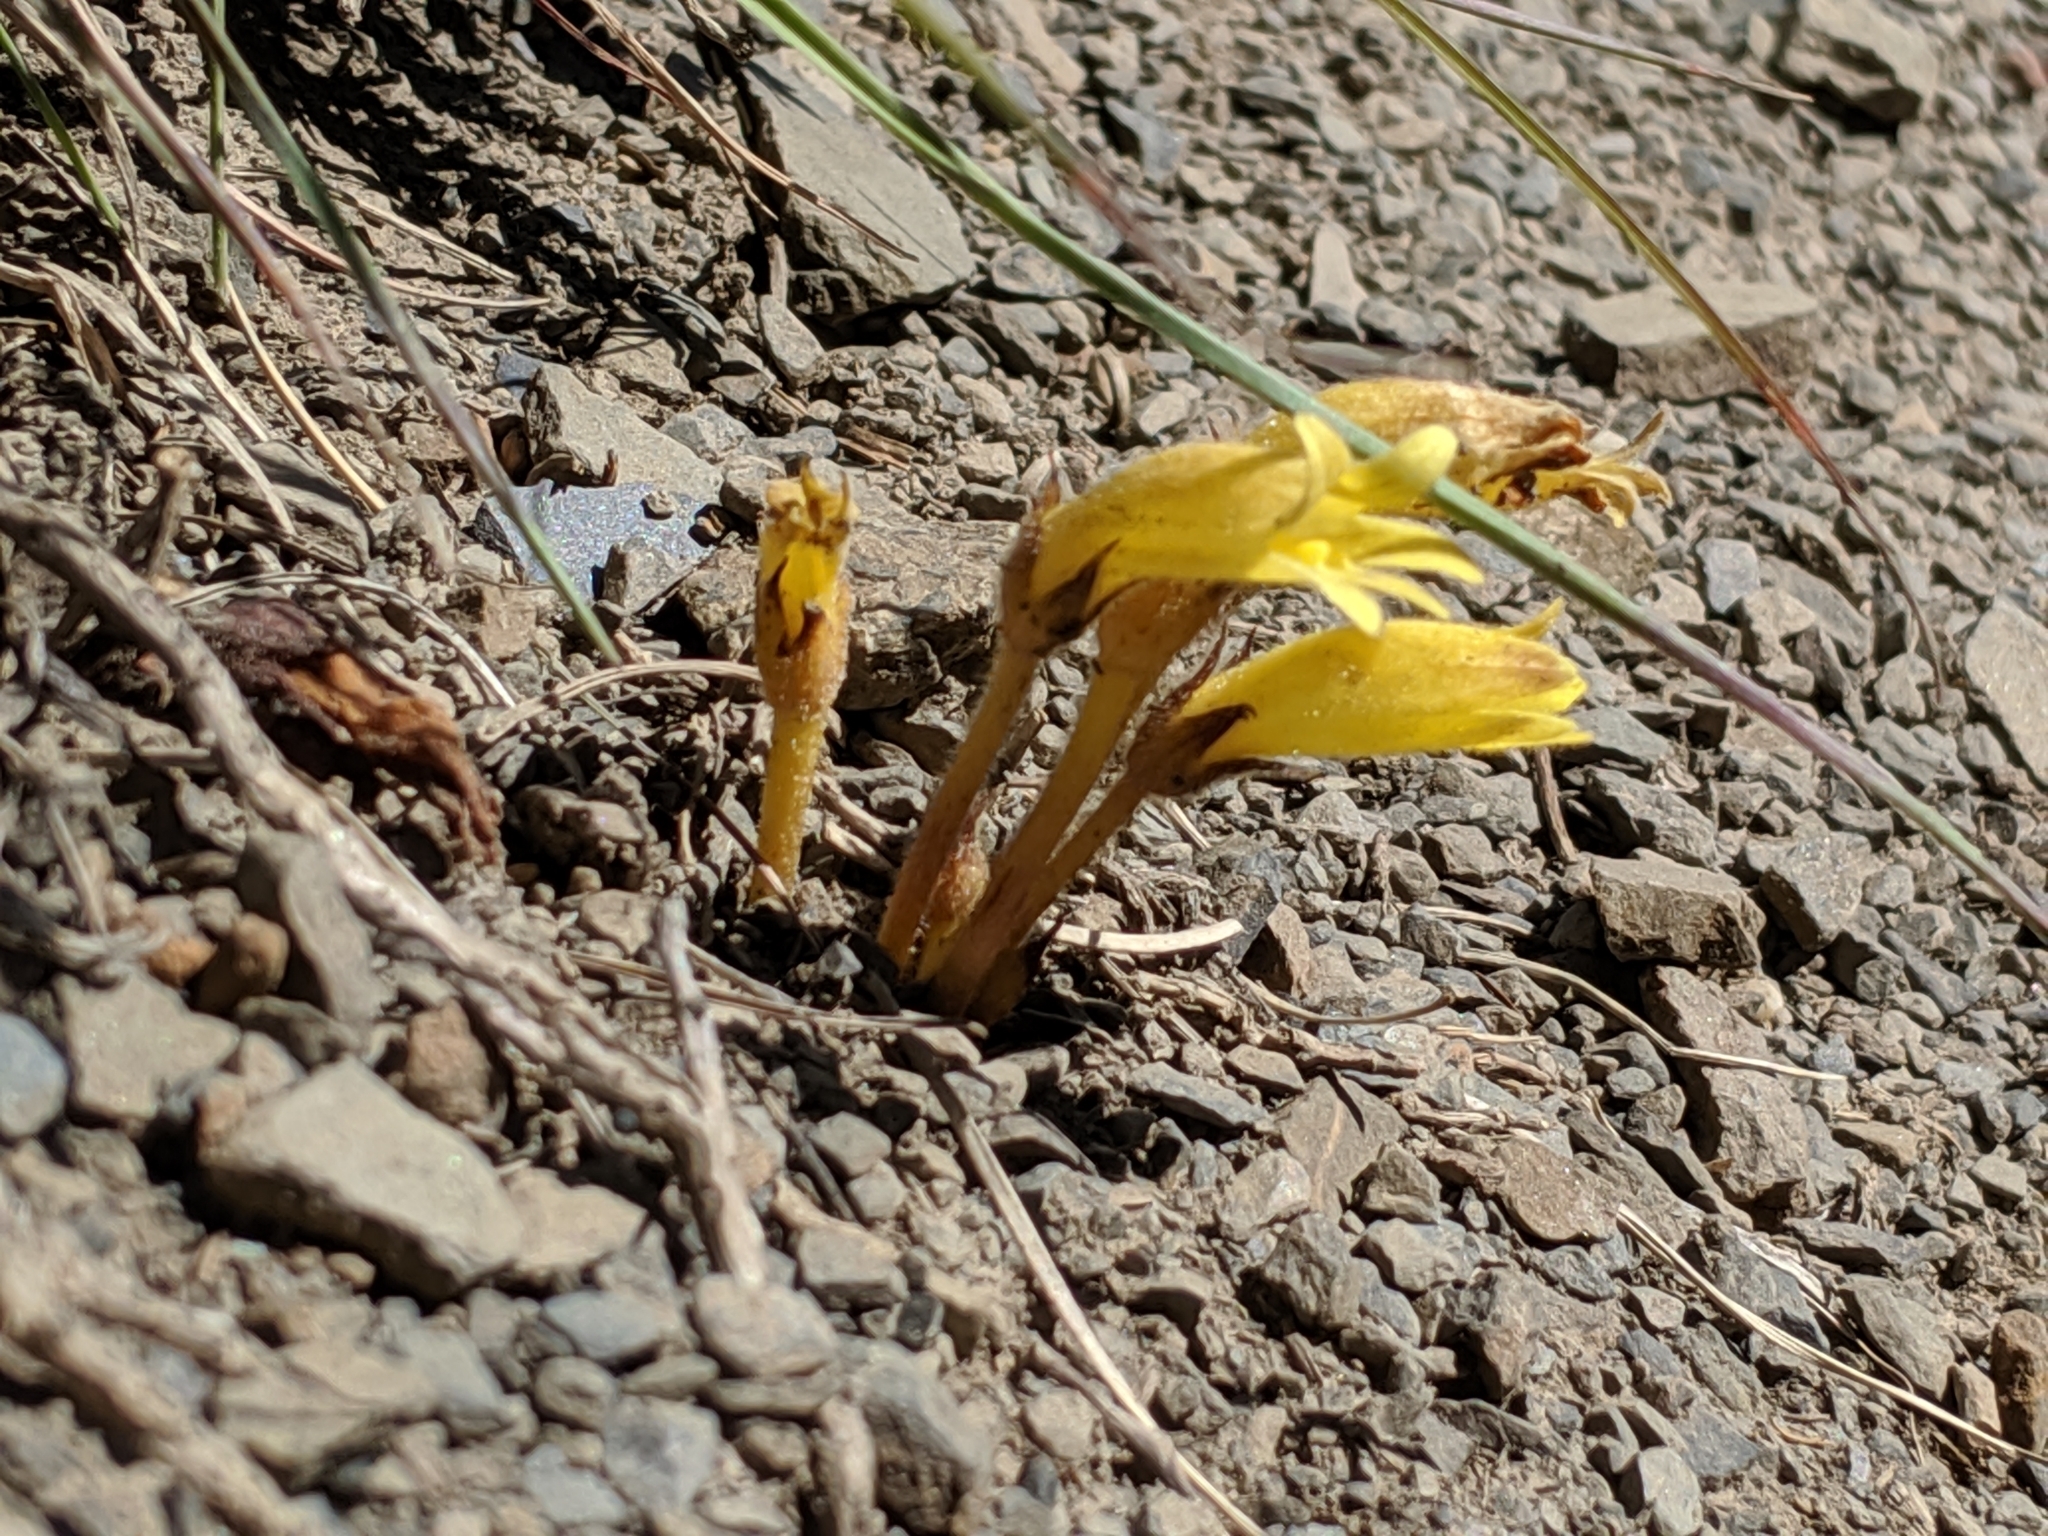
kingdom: Plantae
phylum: Tracheophyta
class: Magnoliopsida
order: Lamiales
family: Orobanchaceae
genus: Aphyllon
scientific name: Aphyllon franciscanum
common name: San francisco broomrape
